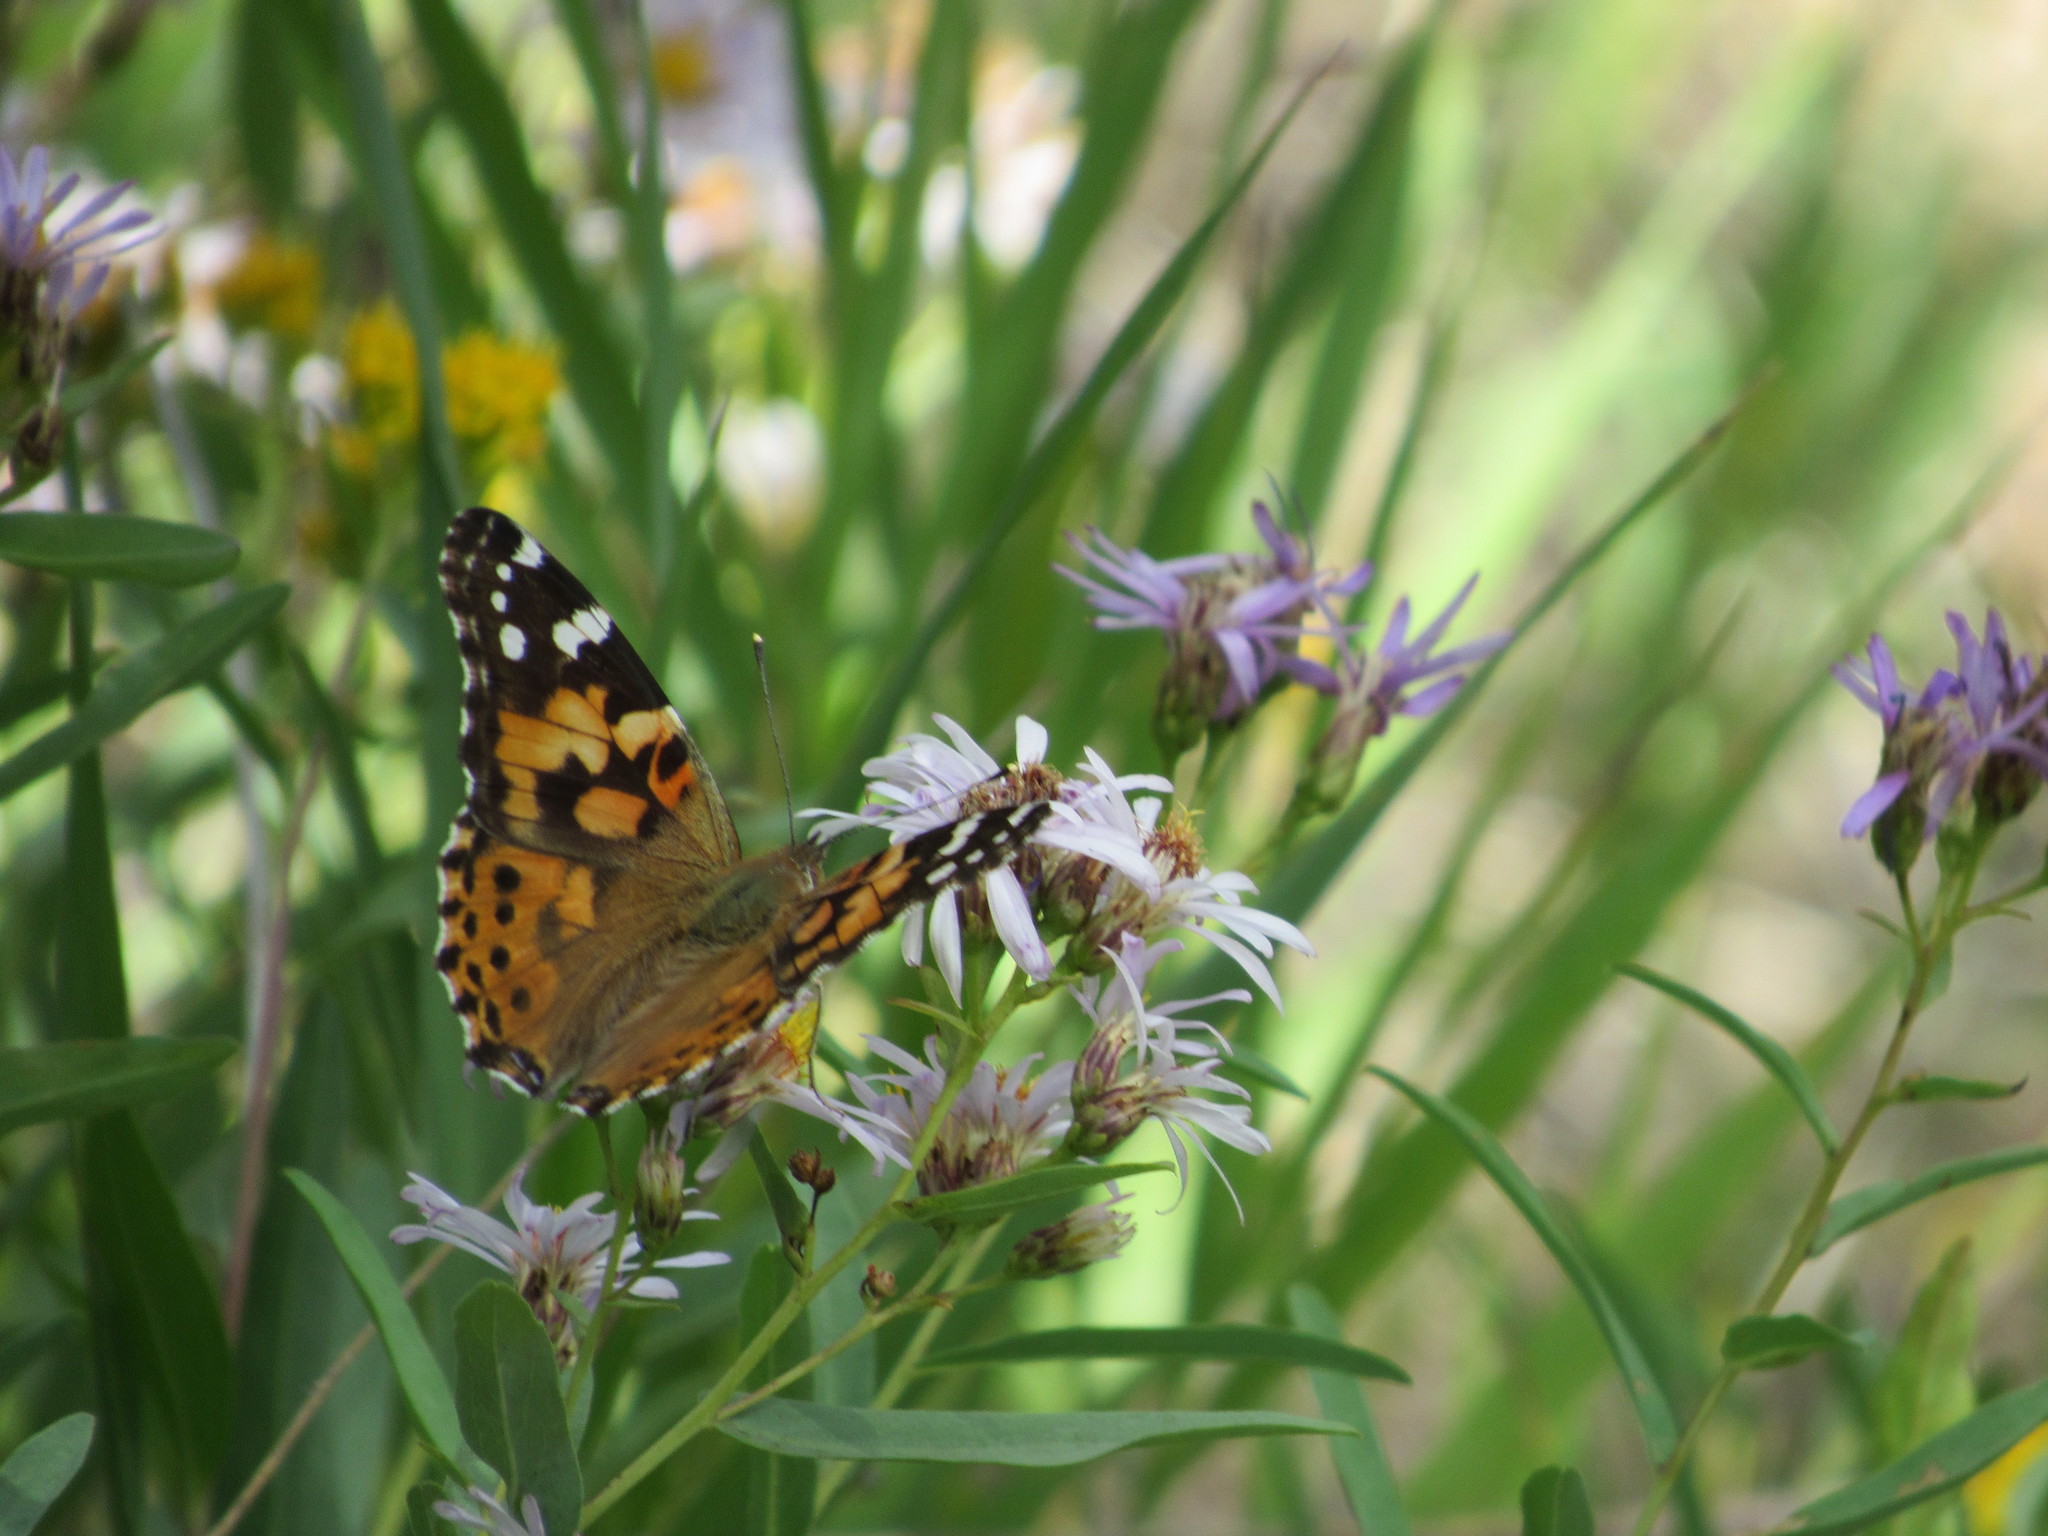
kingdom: Animalia
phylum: Arthropoda
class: Insecta
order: Lepidoptera
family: Nymphalidae
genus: Vanessa
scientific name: Vanessa cardui
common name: Painted lady
